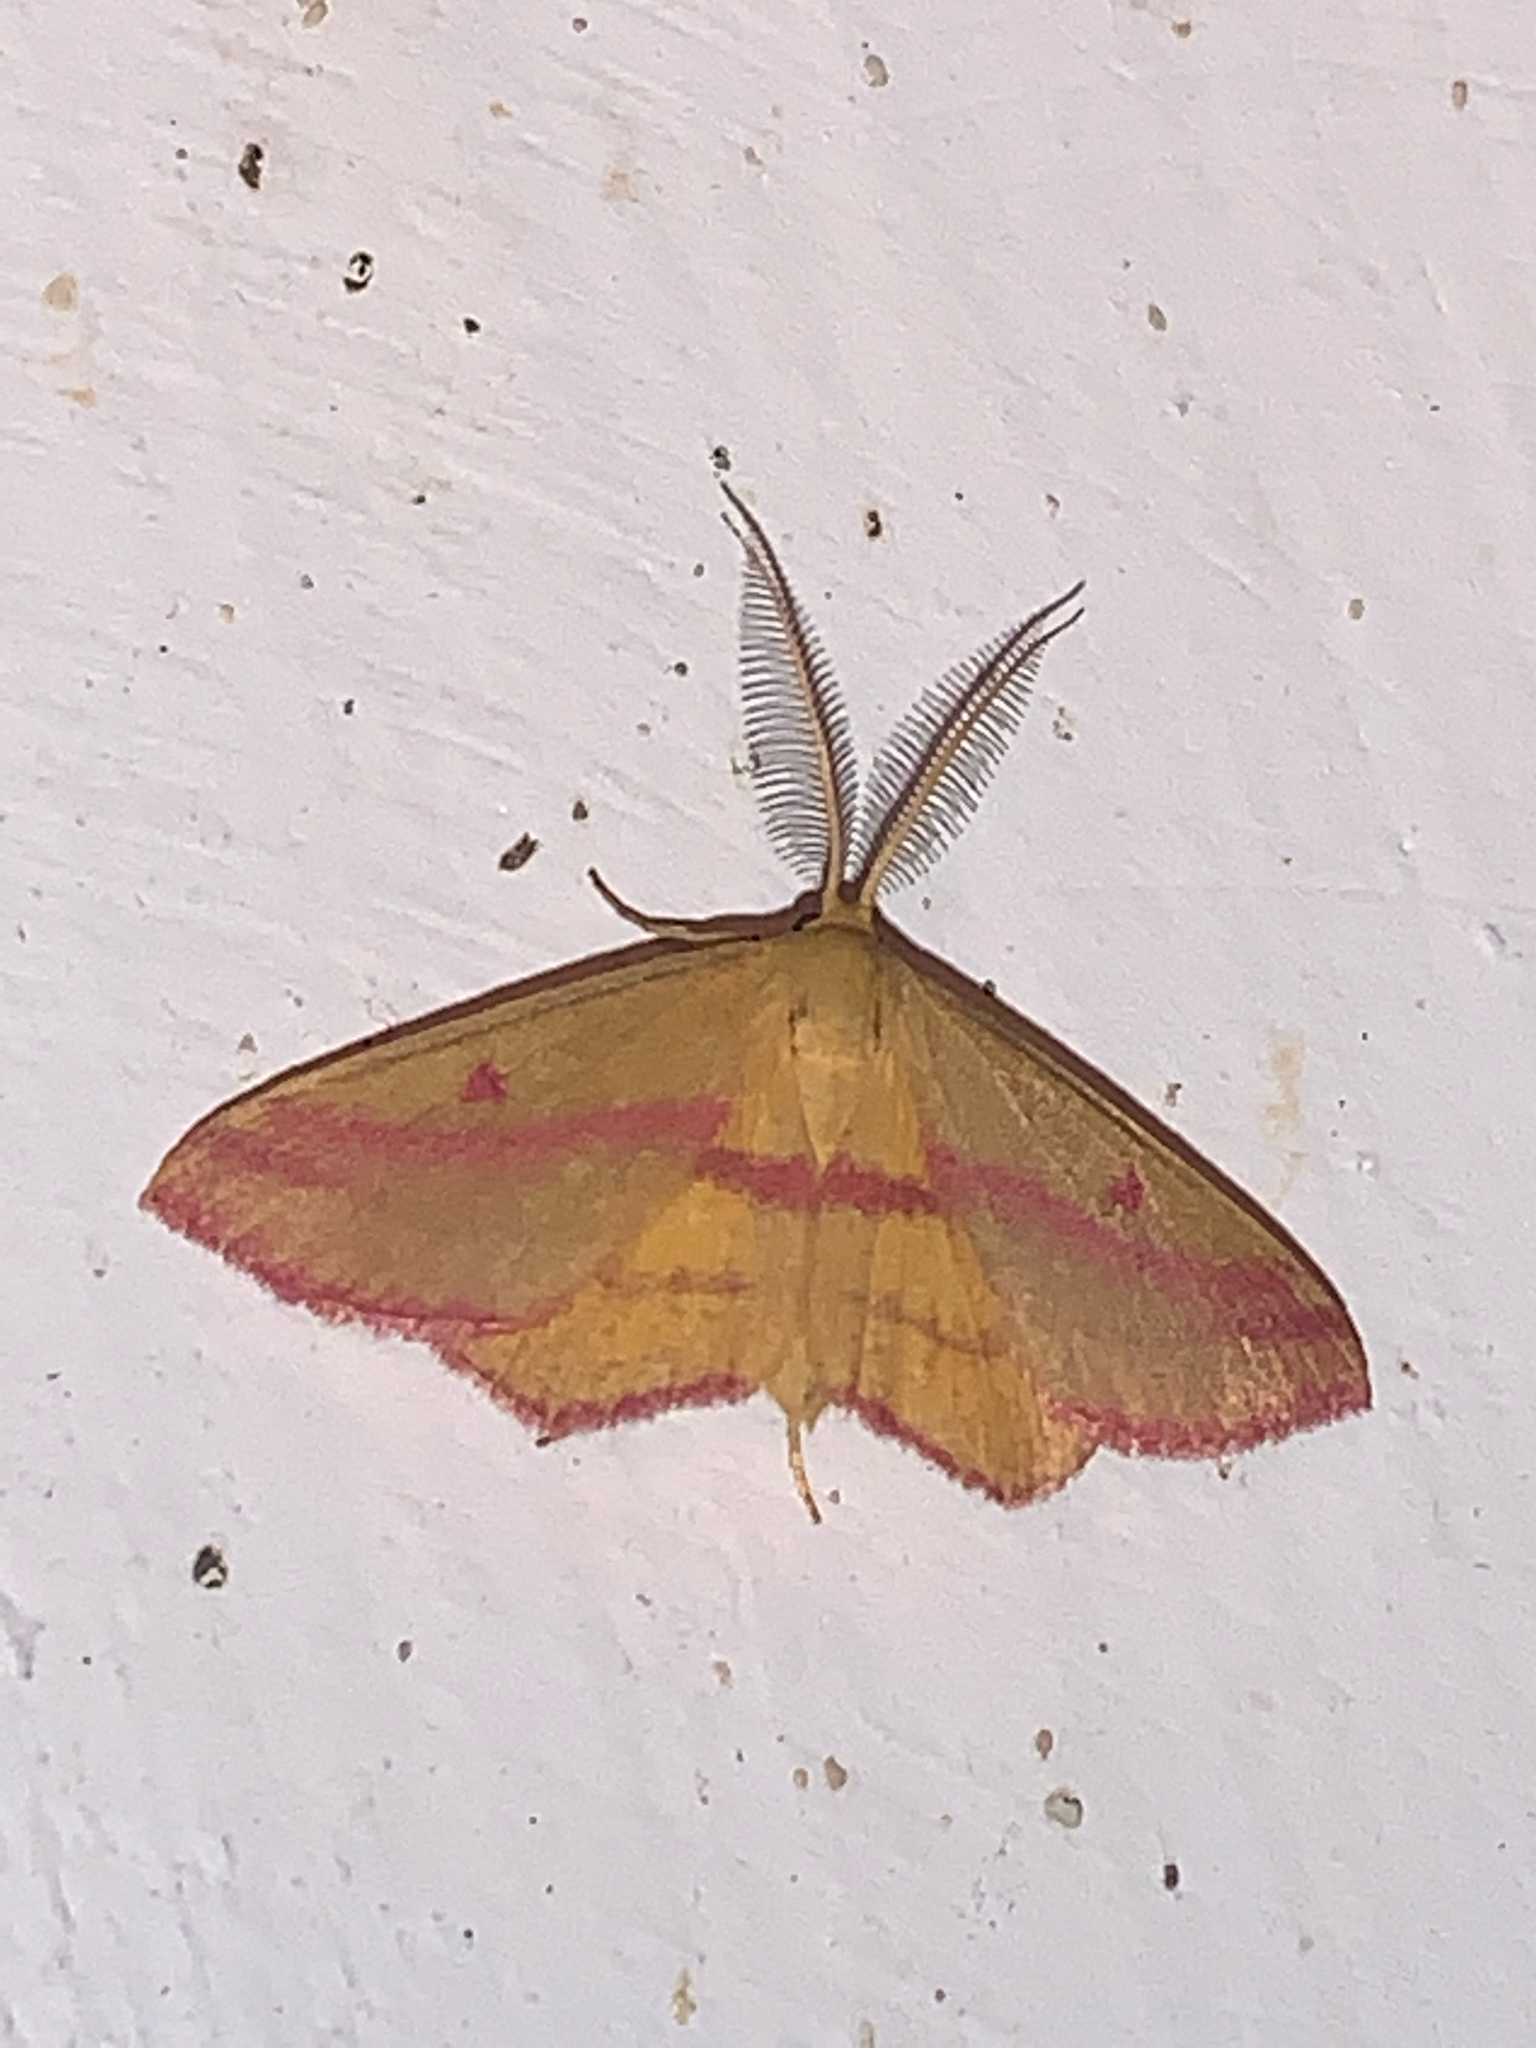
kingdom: Animalia
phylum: Arthropoda
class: Insecta
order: Lepidoptera
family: Geometridae
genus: Haematopis
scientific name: Haematopis grataria
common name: Chickweed geometer
